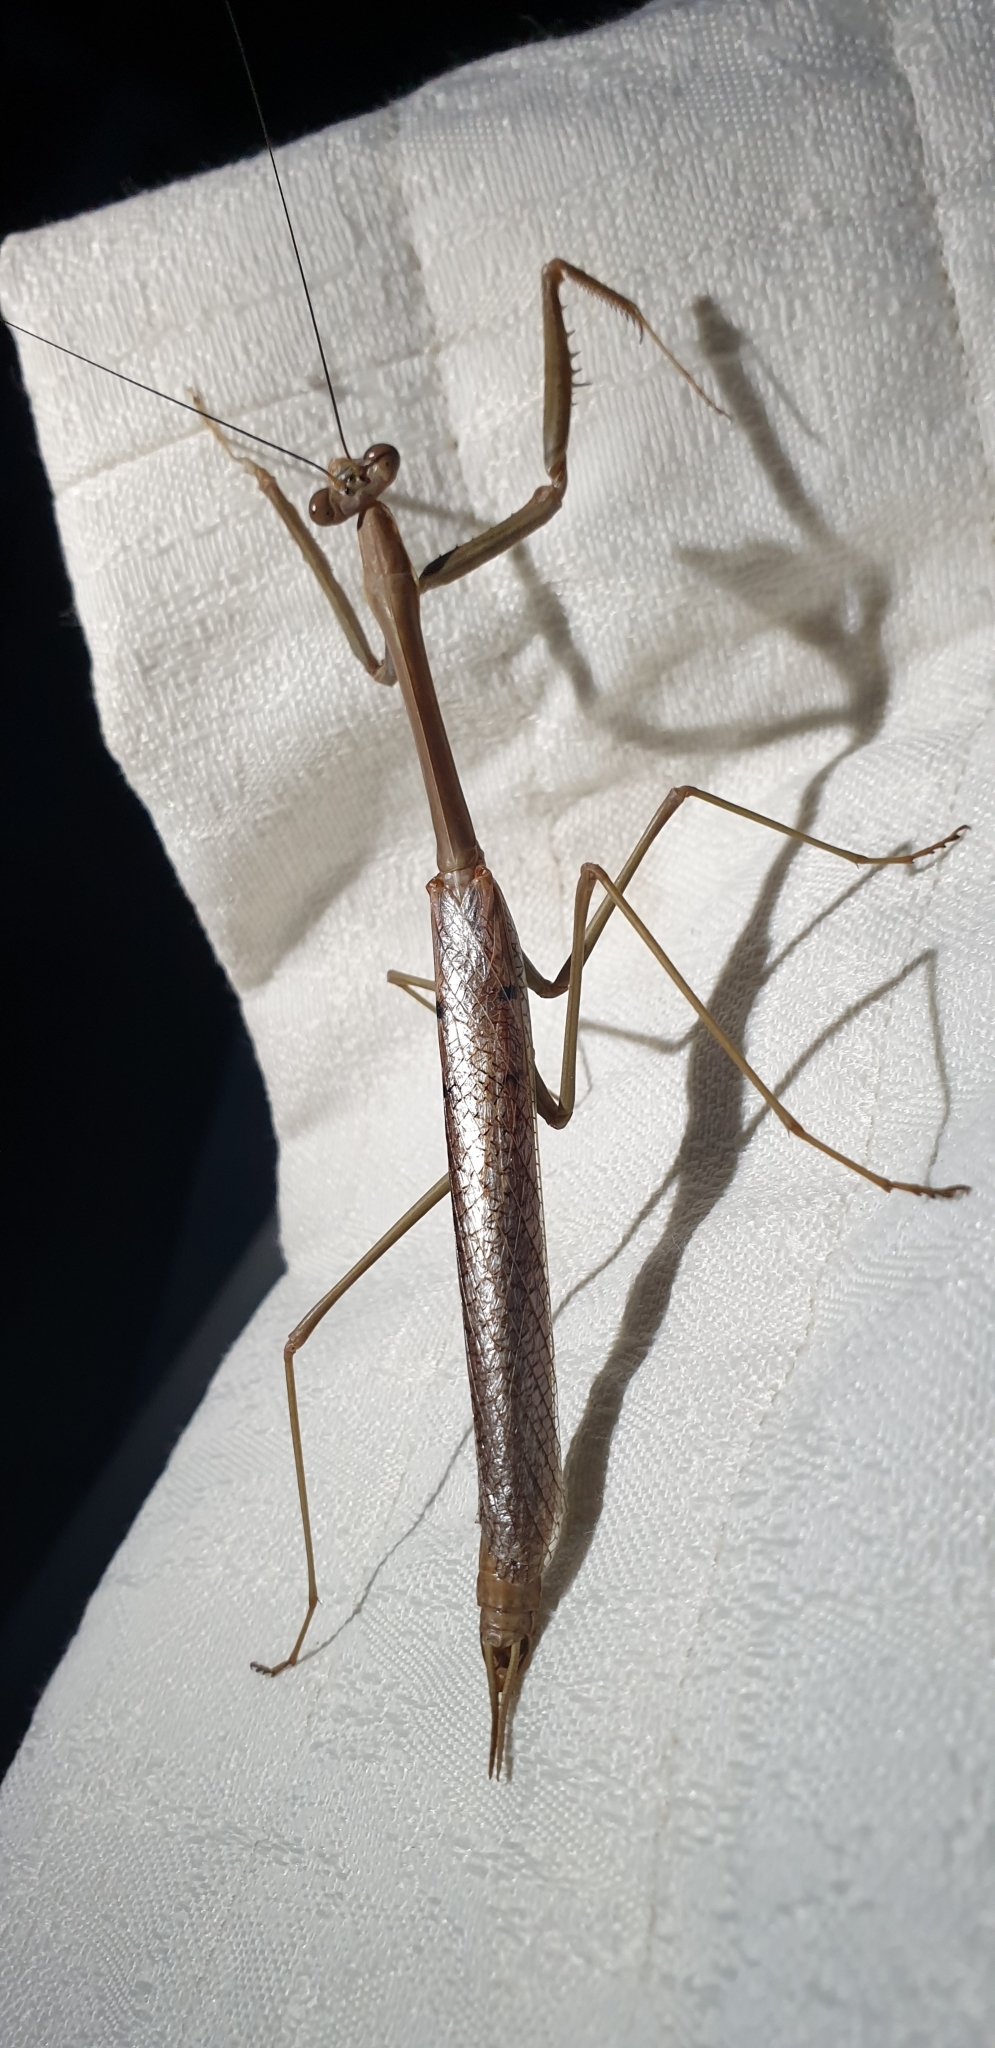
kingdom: Animalia
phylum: Arthropoda
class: Insecta
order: Mantodea
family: Mantidae
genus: Archimantis
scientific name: Archimantis latistyla
